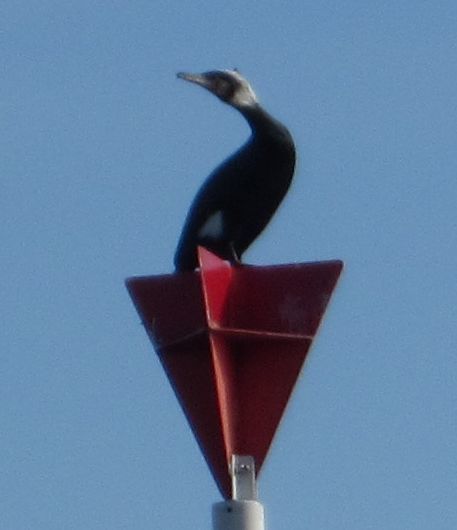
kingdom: Animalia
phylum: Chordata
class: Aves
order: Suliformes
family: Phalacrocoracidae
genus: Phalacrocorax
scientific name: Phalacrocorax carbo
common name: Great cormorant
